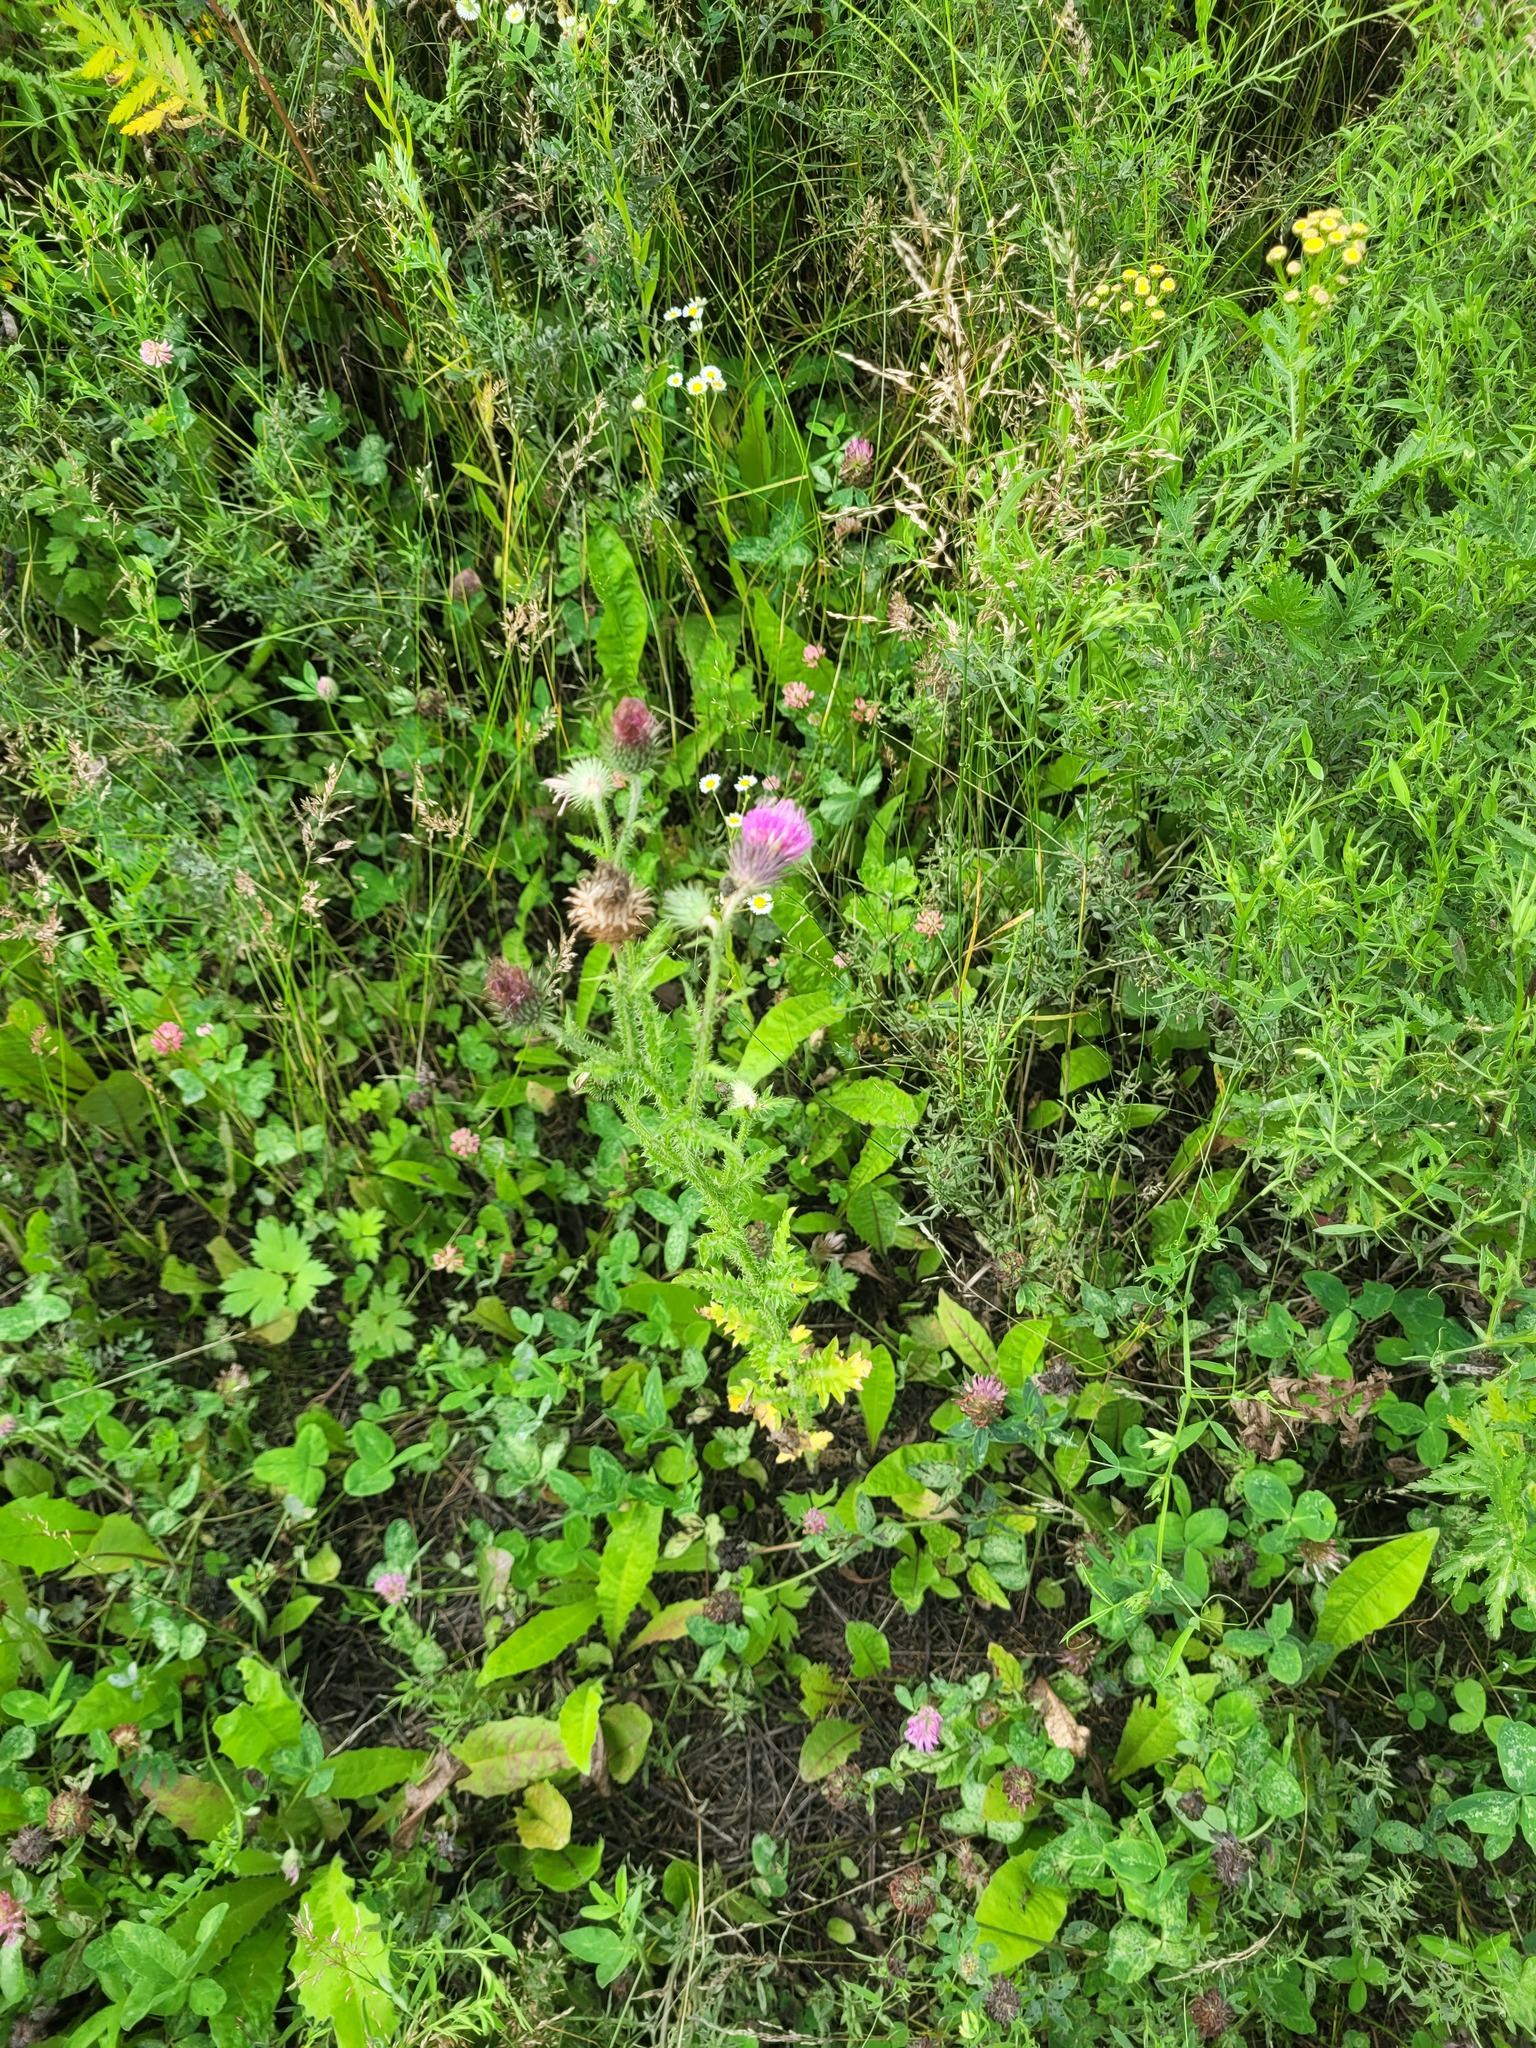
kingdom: Plantae
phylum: Tracheophyta
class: Magnoliopsida
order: Asterales
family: Asteraceae
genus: Carduus
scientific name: Carduus crispus
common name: Welted thistle
